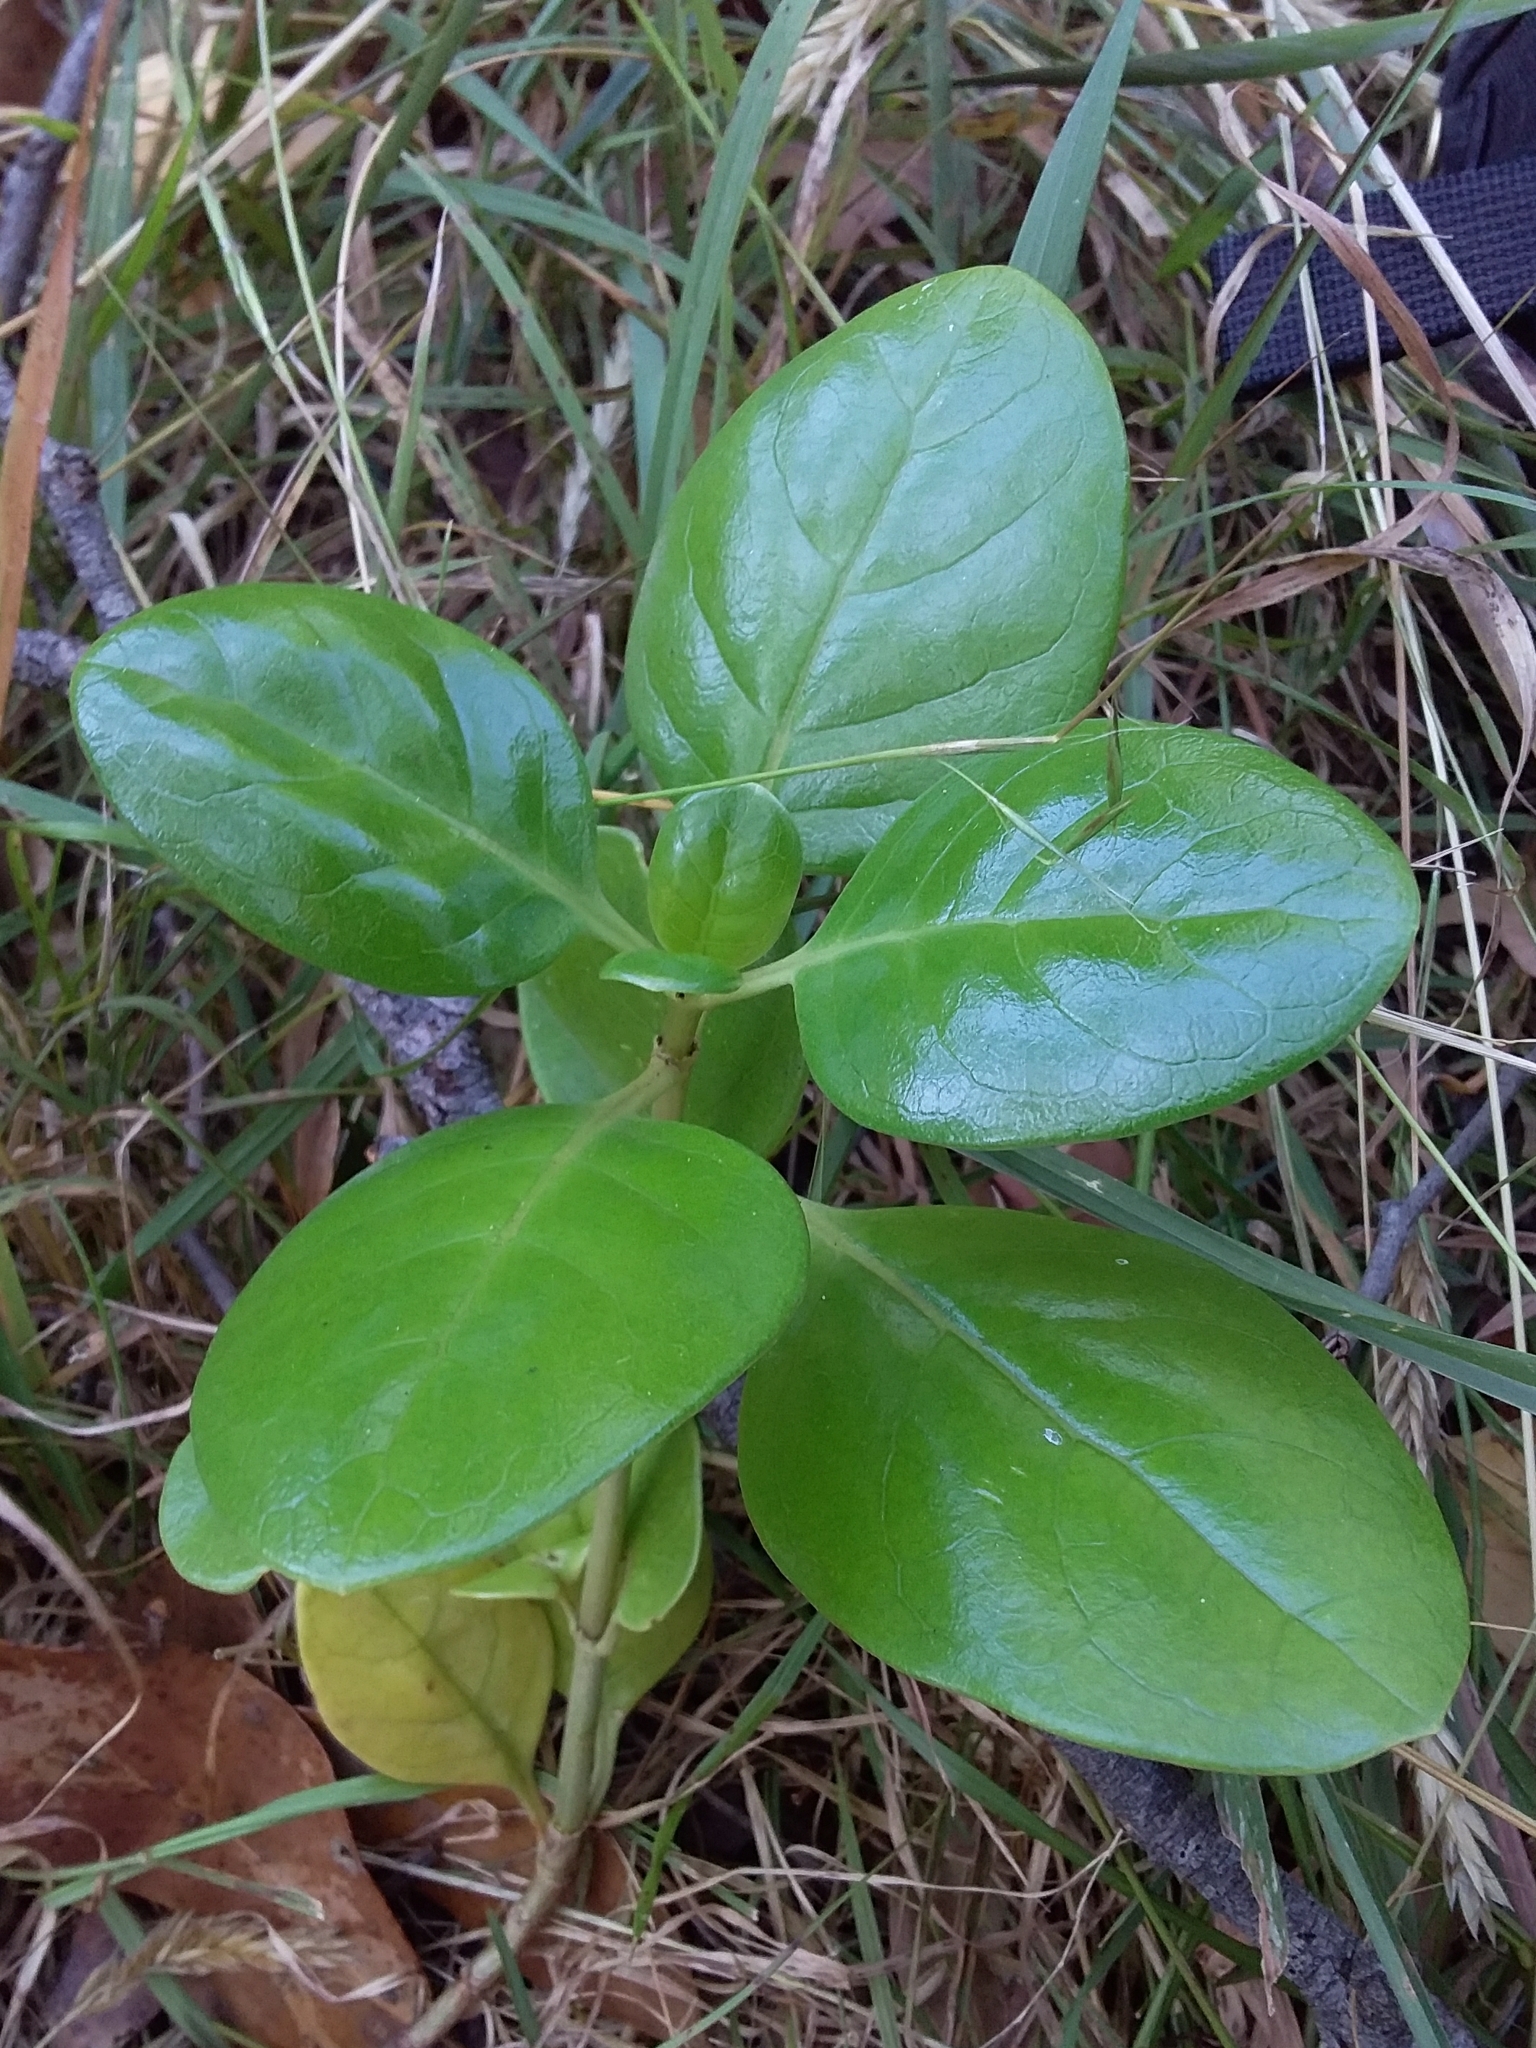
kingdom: Plantae
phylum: Tracheophyta
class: Magnoliopsida
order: Gentianales
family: Rubiaceae
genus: Coprosma
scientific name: Coprosma repens
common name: Tree bedstraw
